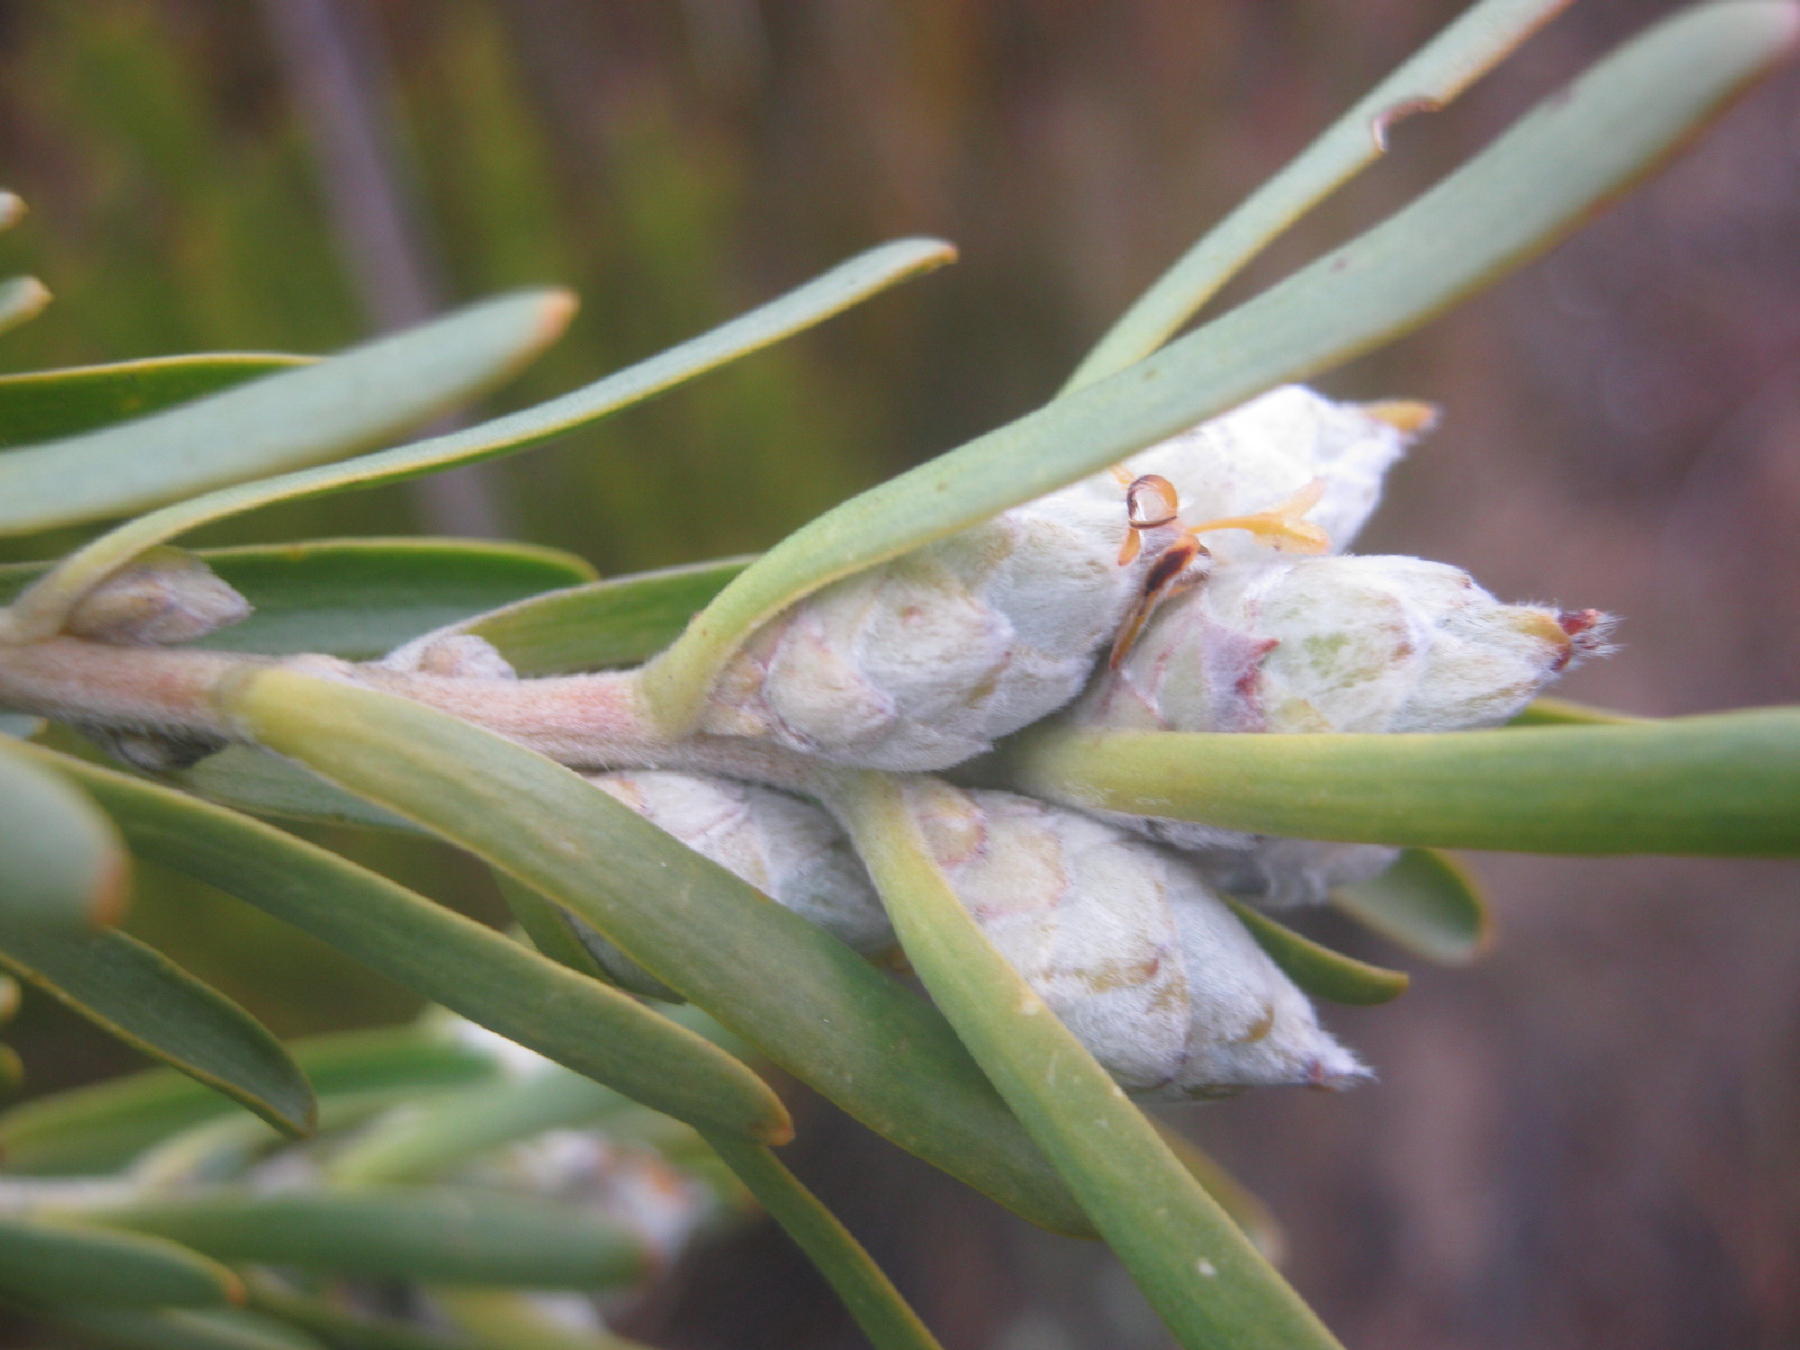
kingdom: Plantae
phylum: Tracheophyta
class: Magnoliopsida
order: Proteales
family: Proteaceae
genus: Leucadendron
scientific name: Leucadendron ericifolium
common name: Erica-leaved conebush
